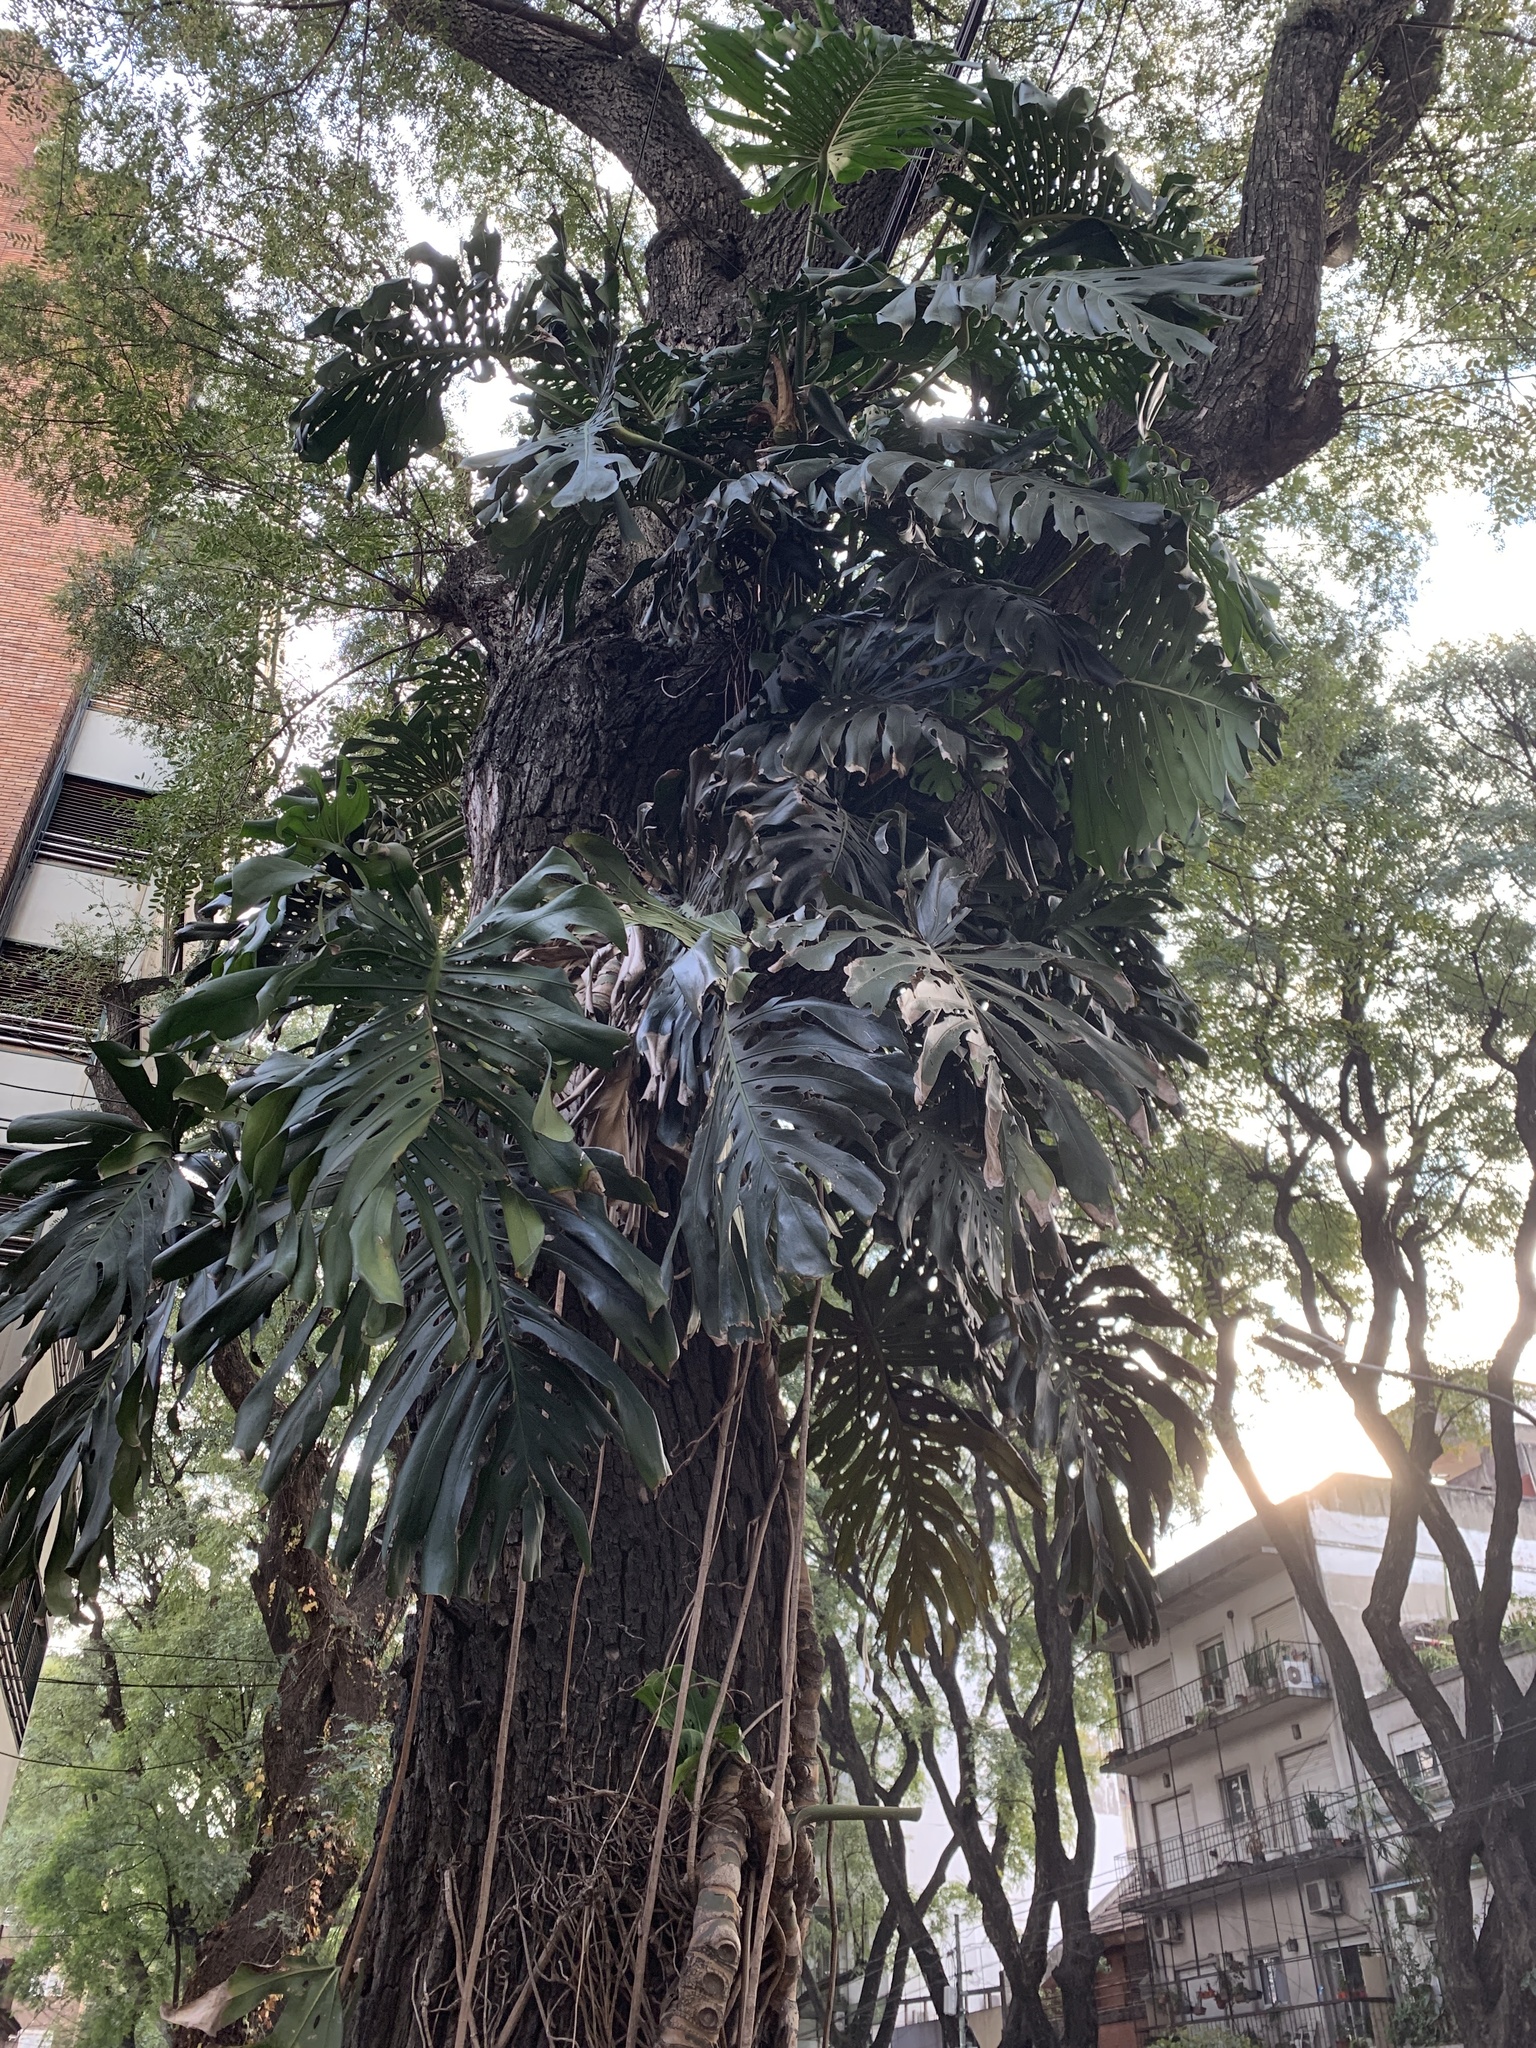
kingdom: Plantae
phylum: Tracheophyta
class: Liliopsida
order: Alismatales
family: Araceae
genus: Monstera
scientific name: Monstera deliciosa
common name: Cut-leaf-philodendron
